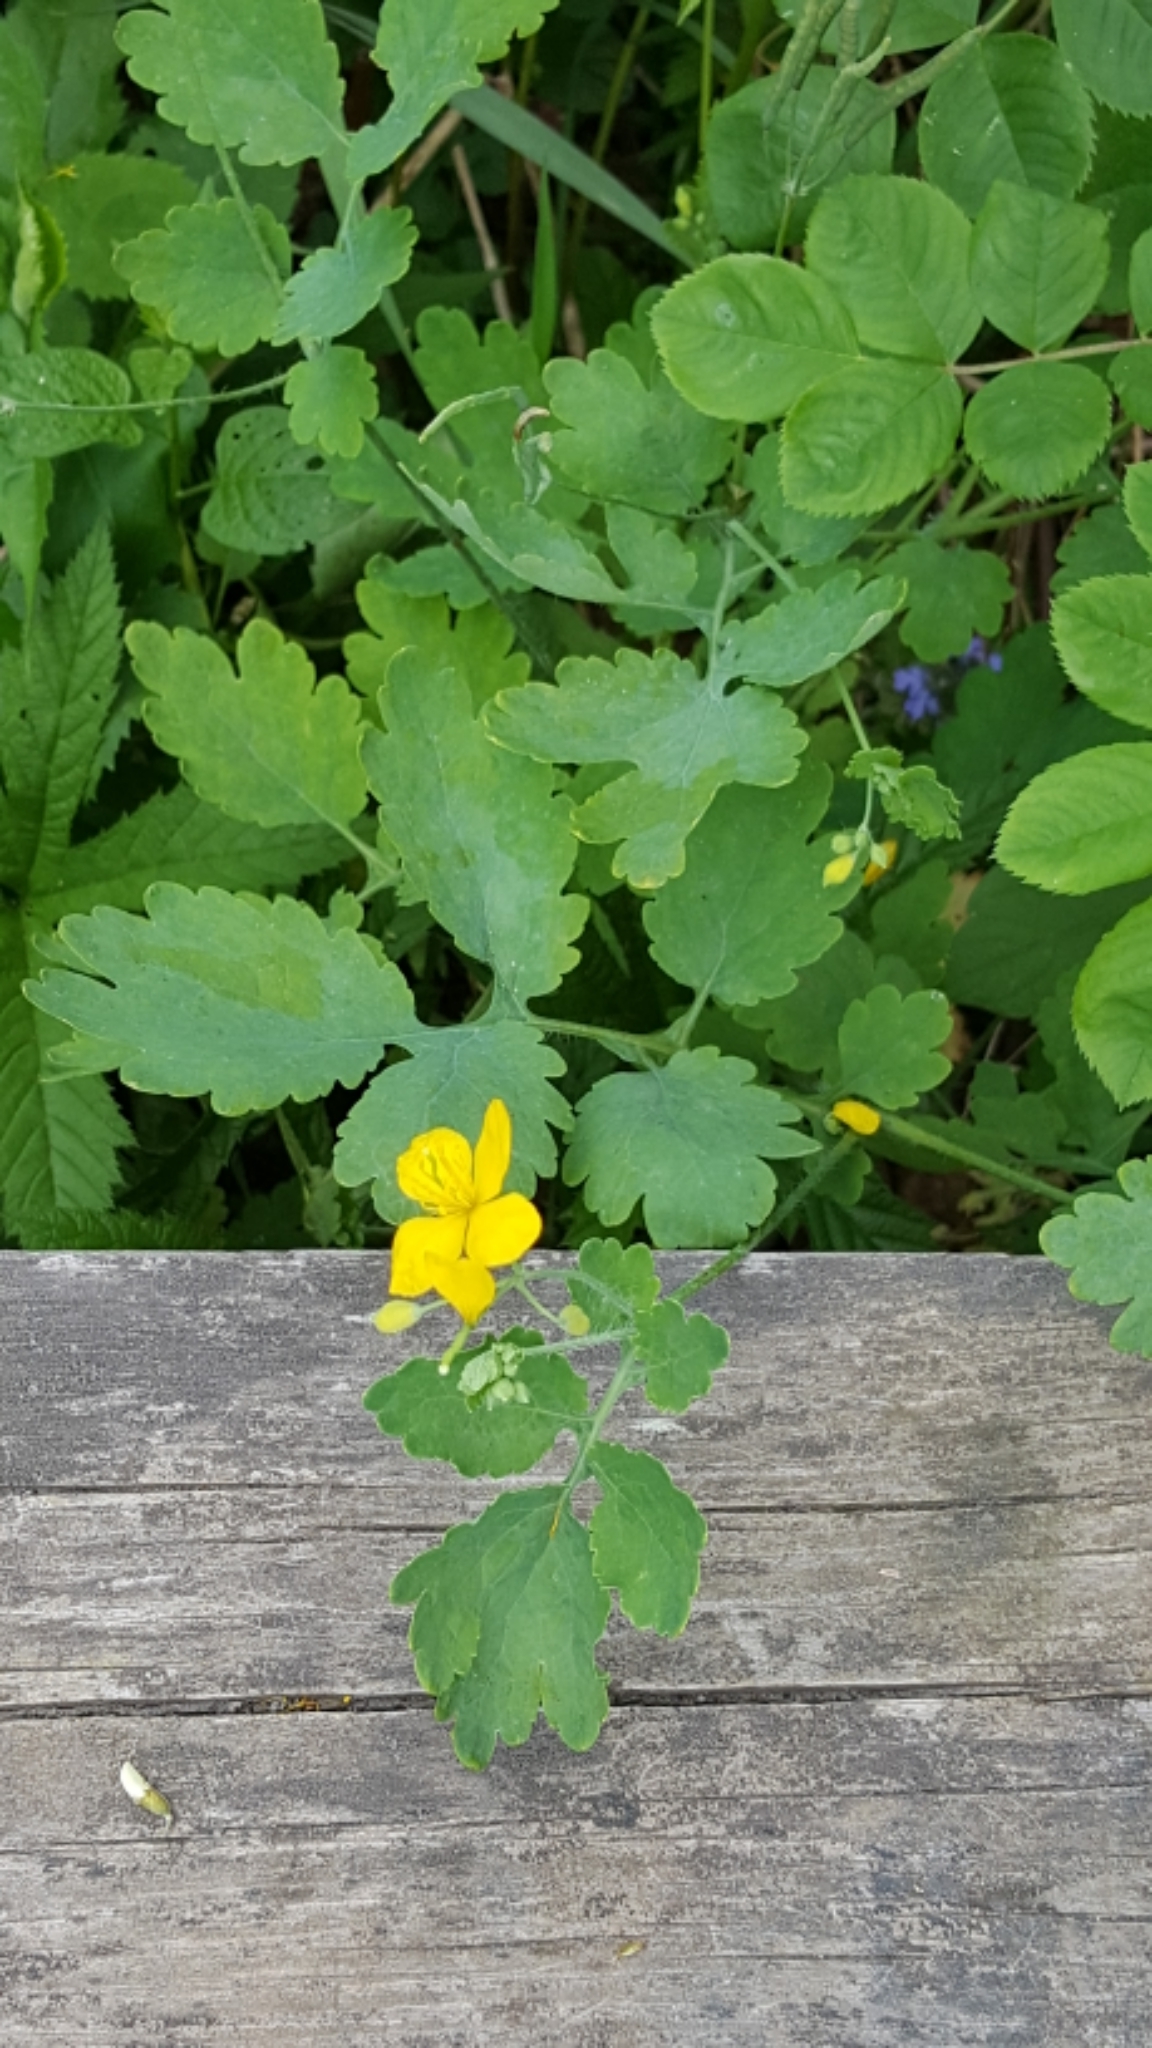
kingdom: Plantae
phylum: Tracheophyta
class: Magnoliopsida
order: Ranunculales
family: Papaveraceae
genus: Chelidonium
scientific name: Chelidonium majus
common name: Greater celandine
